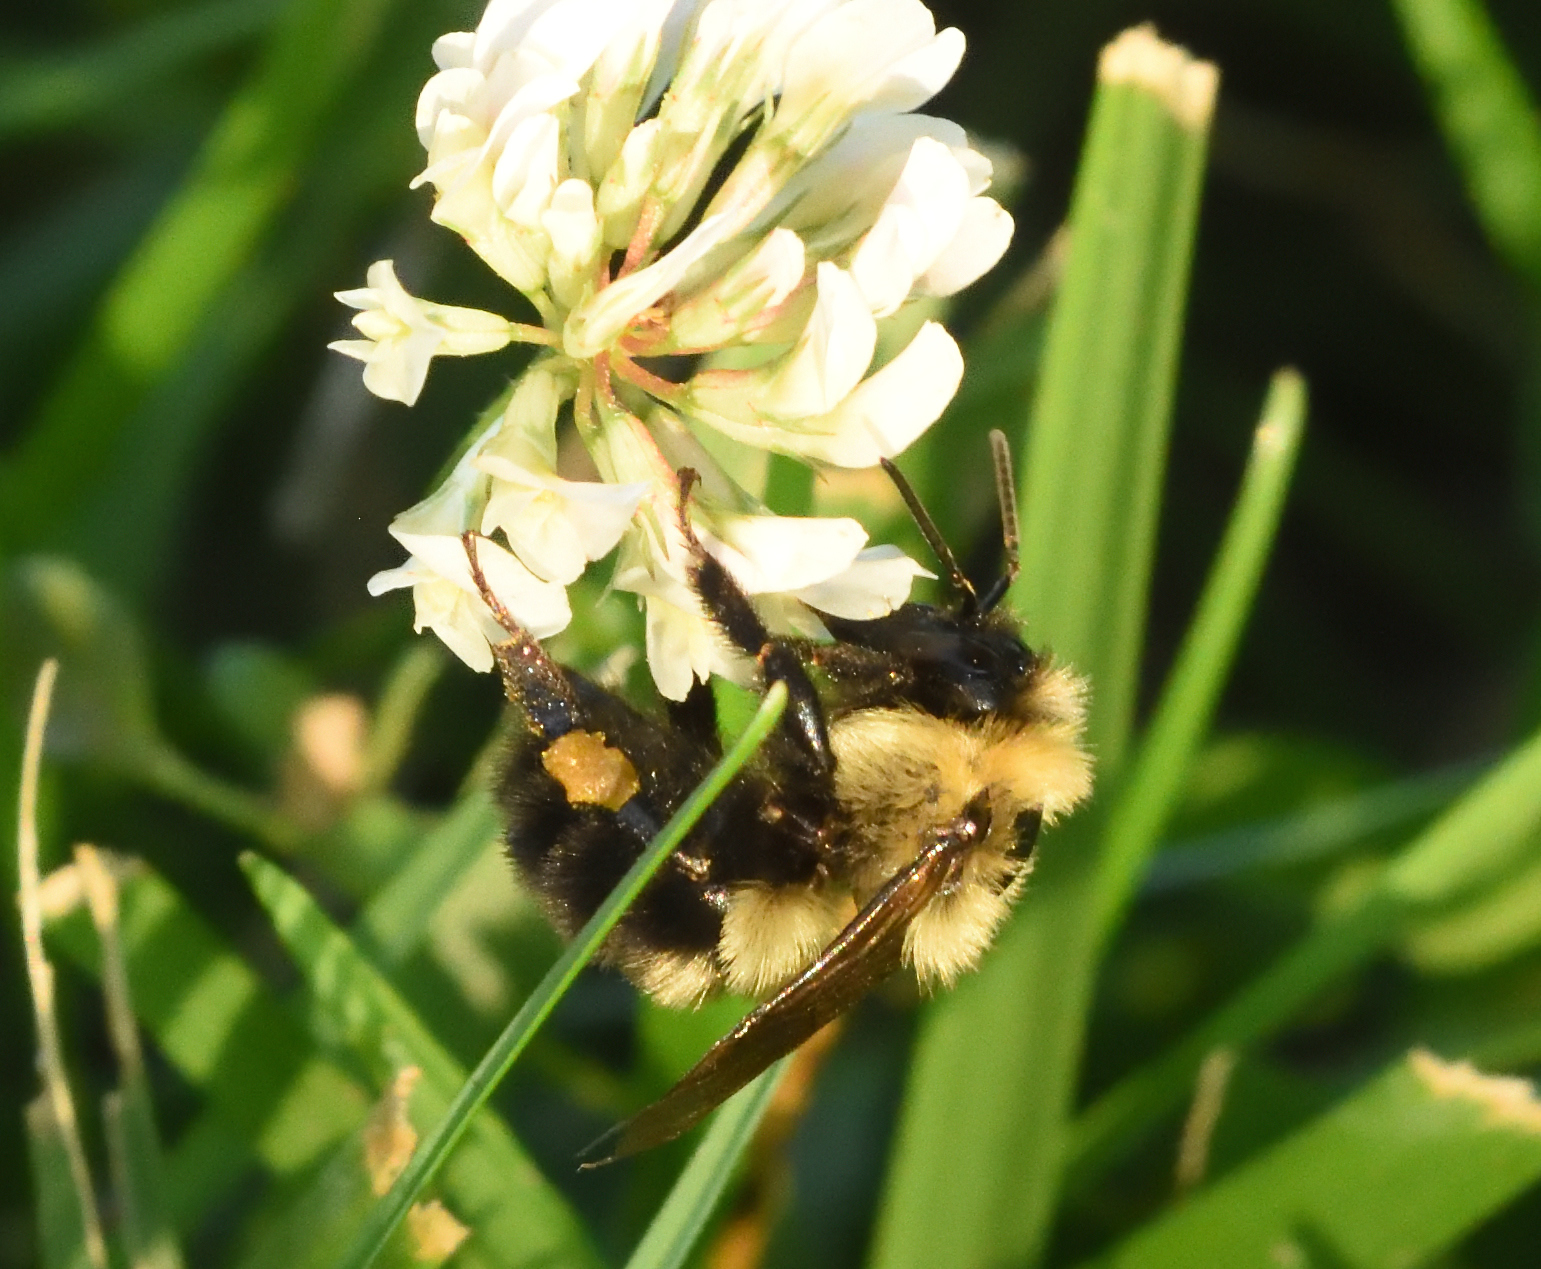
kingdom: Animalia
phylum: Arthropoda
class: Insecta
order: Hymenoptera
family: Apidae
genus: Bombus
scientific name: Bombus bimaculatus
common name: Two-spotted bumble bee
